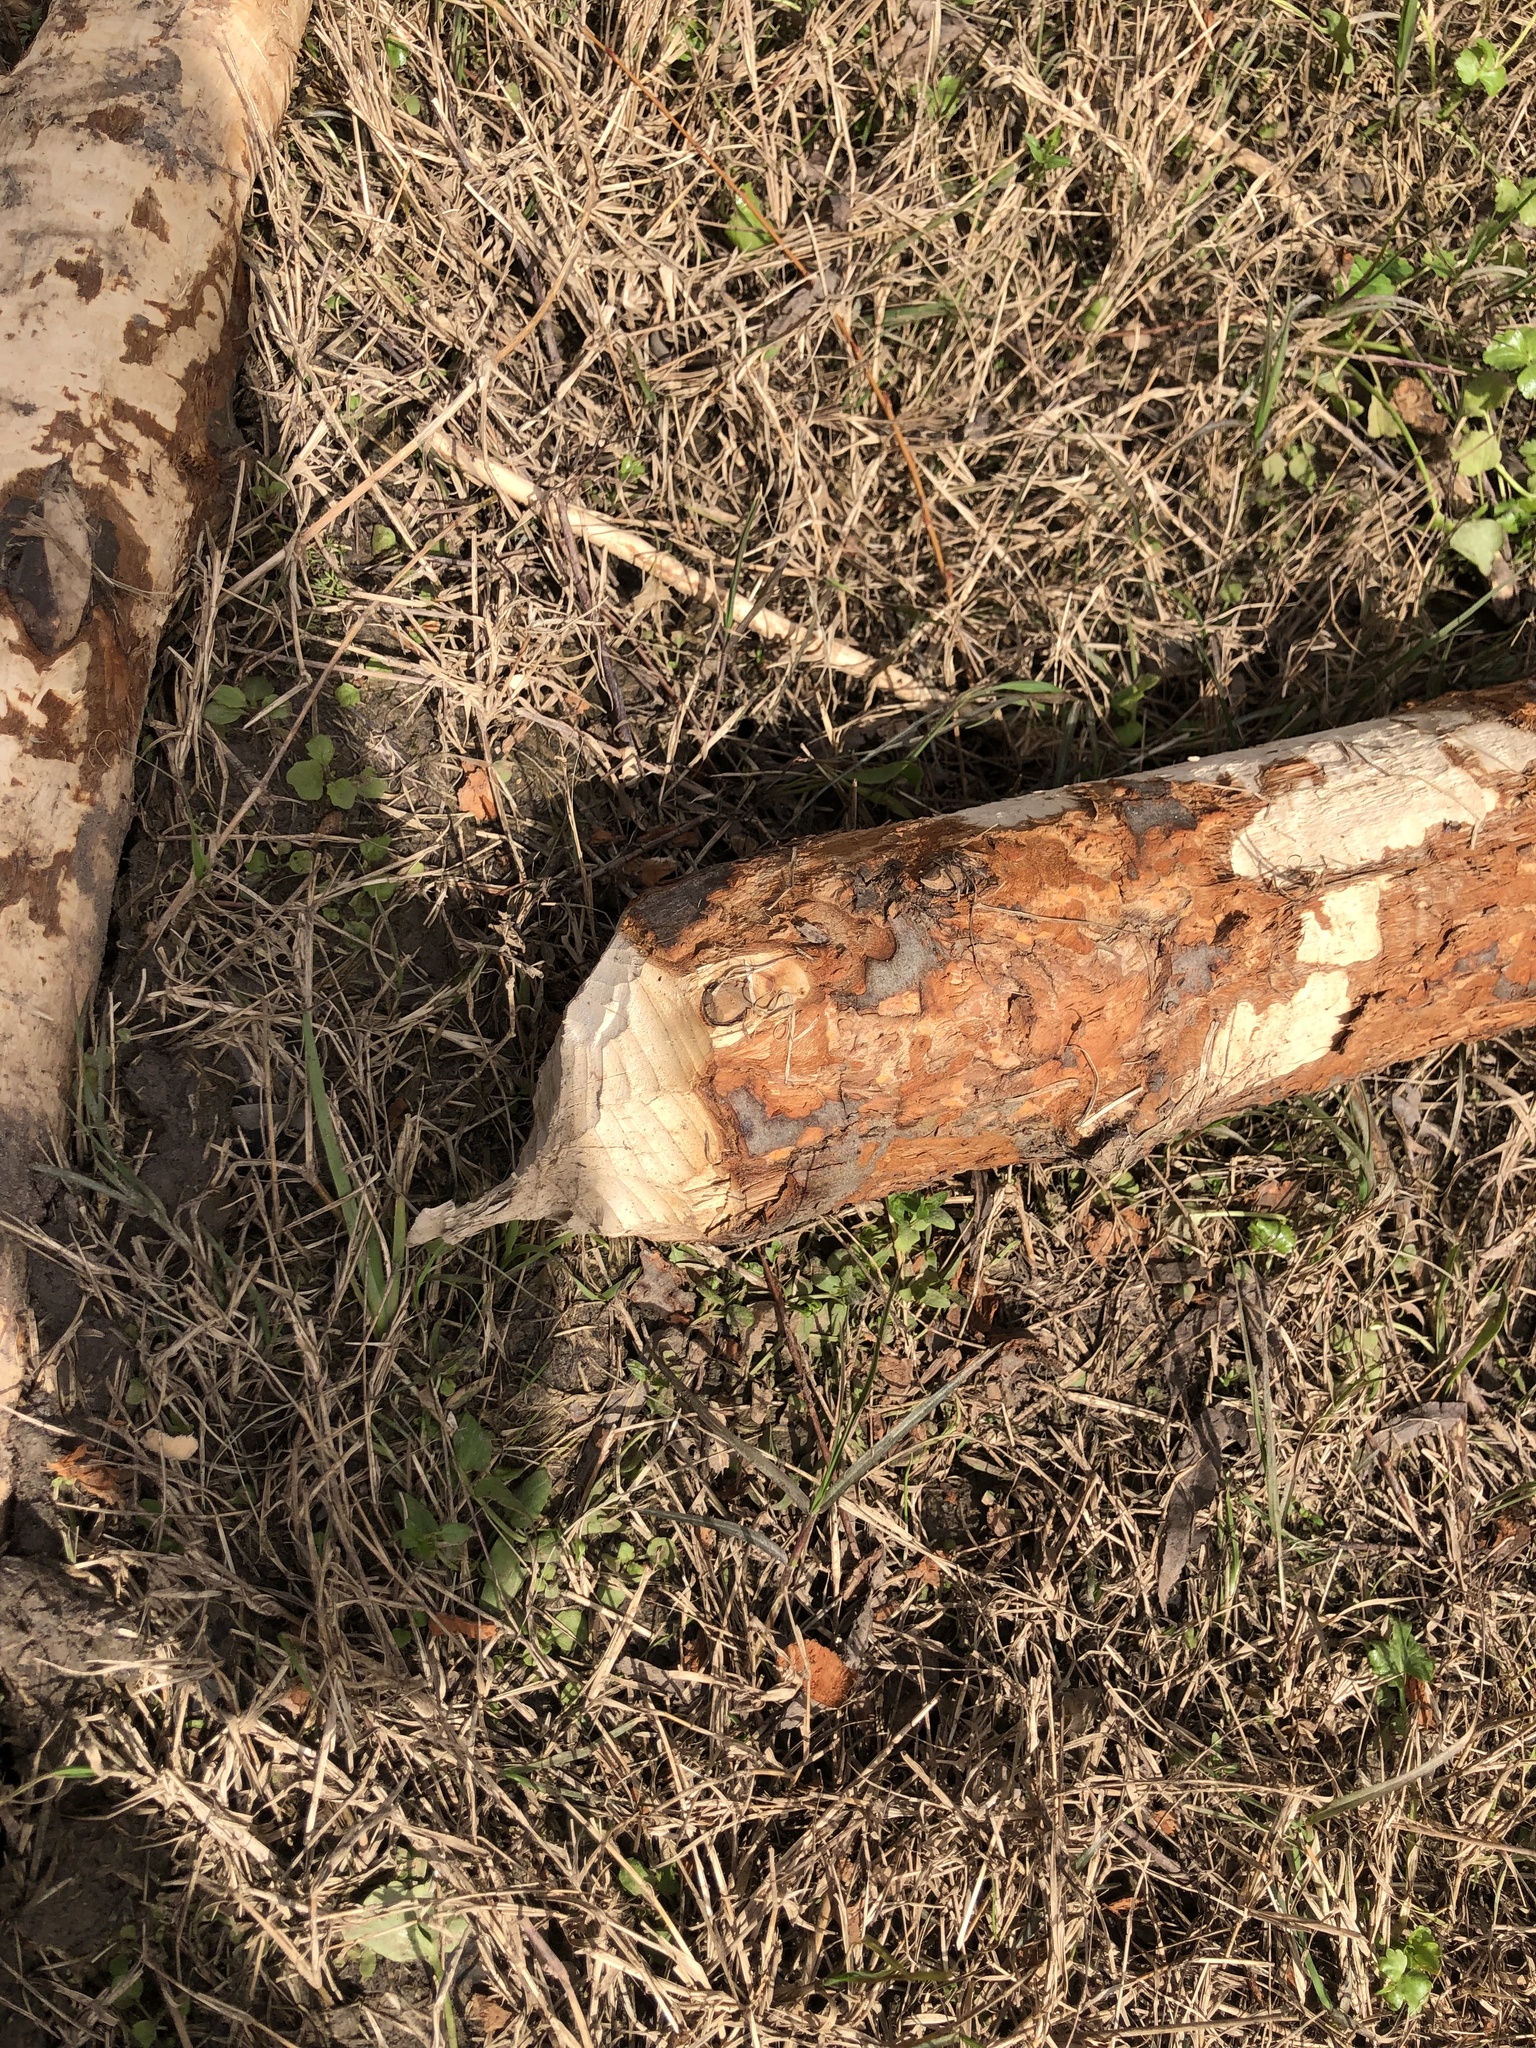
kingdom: Animalia
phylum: Chordata
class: Mammalia
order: Rodentia
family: Castoridae
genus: Castor
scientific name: Castor canadensis
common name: American beaver
